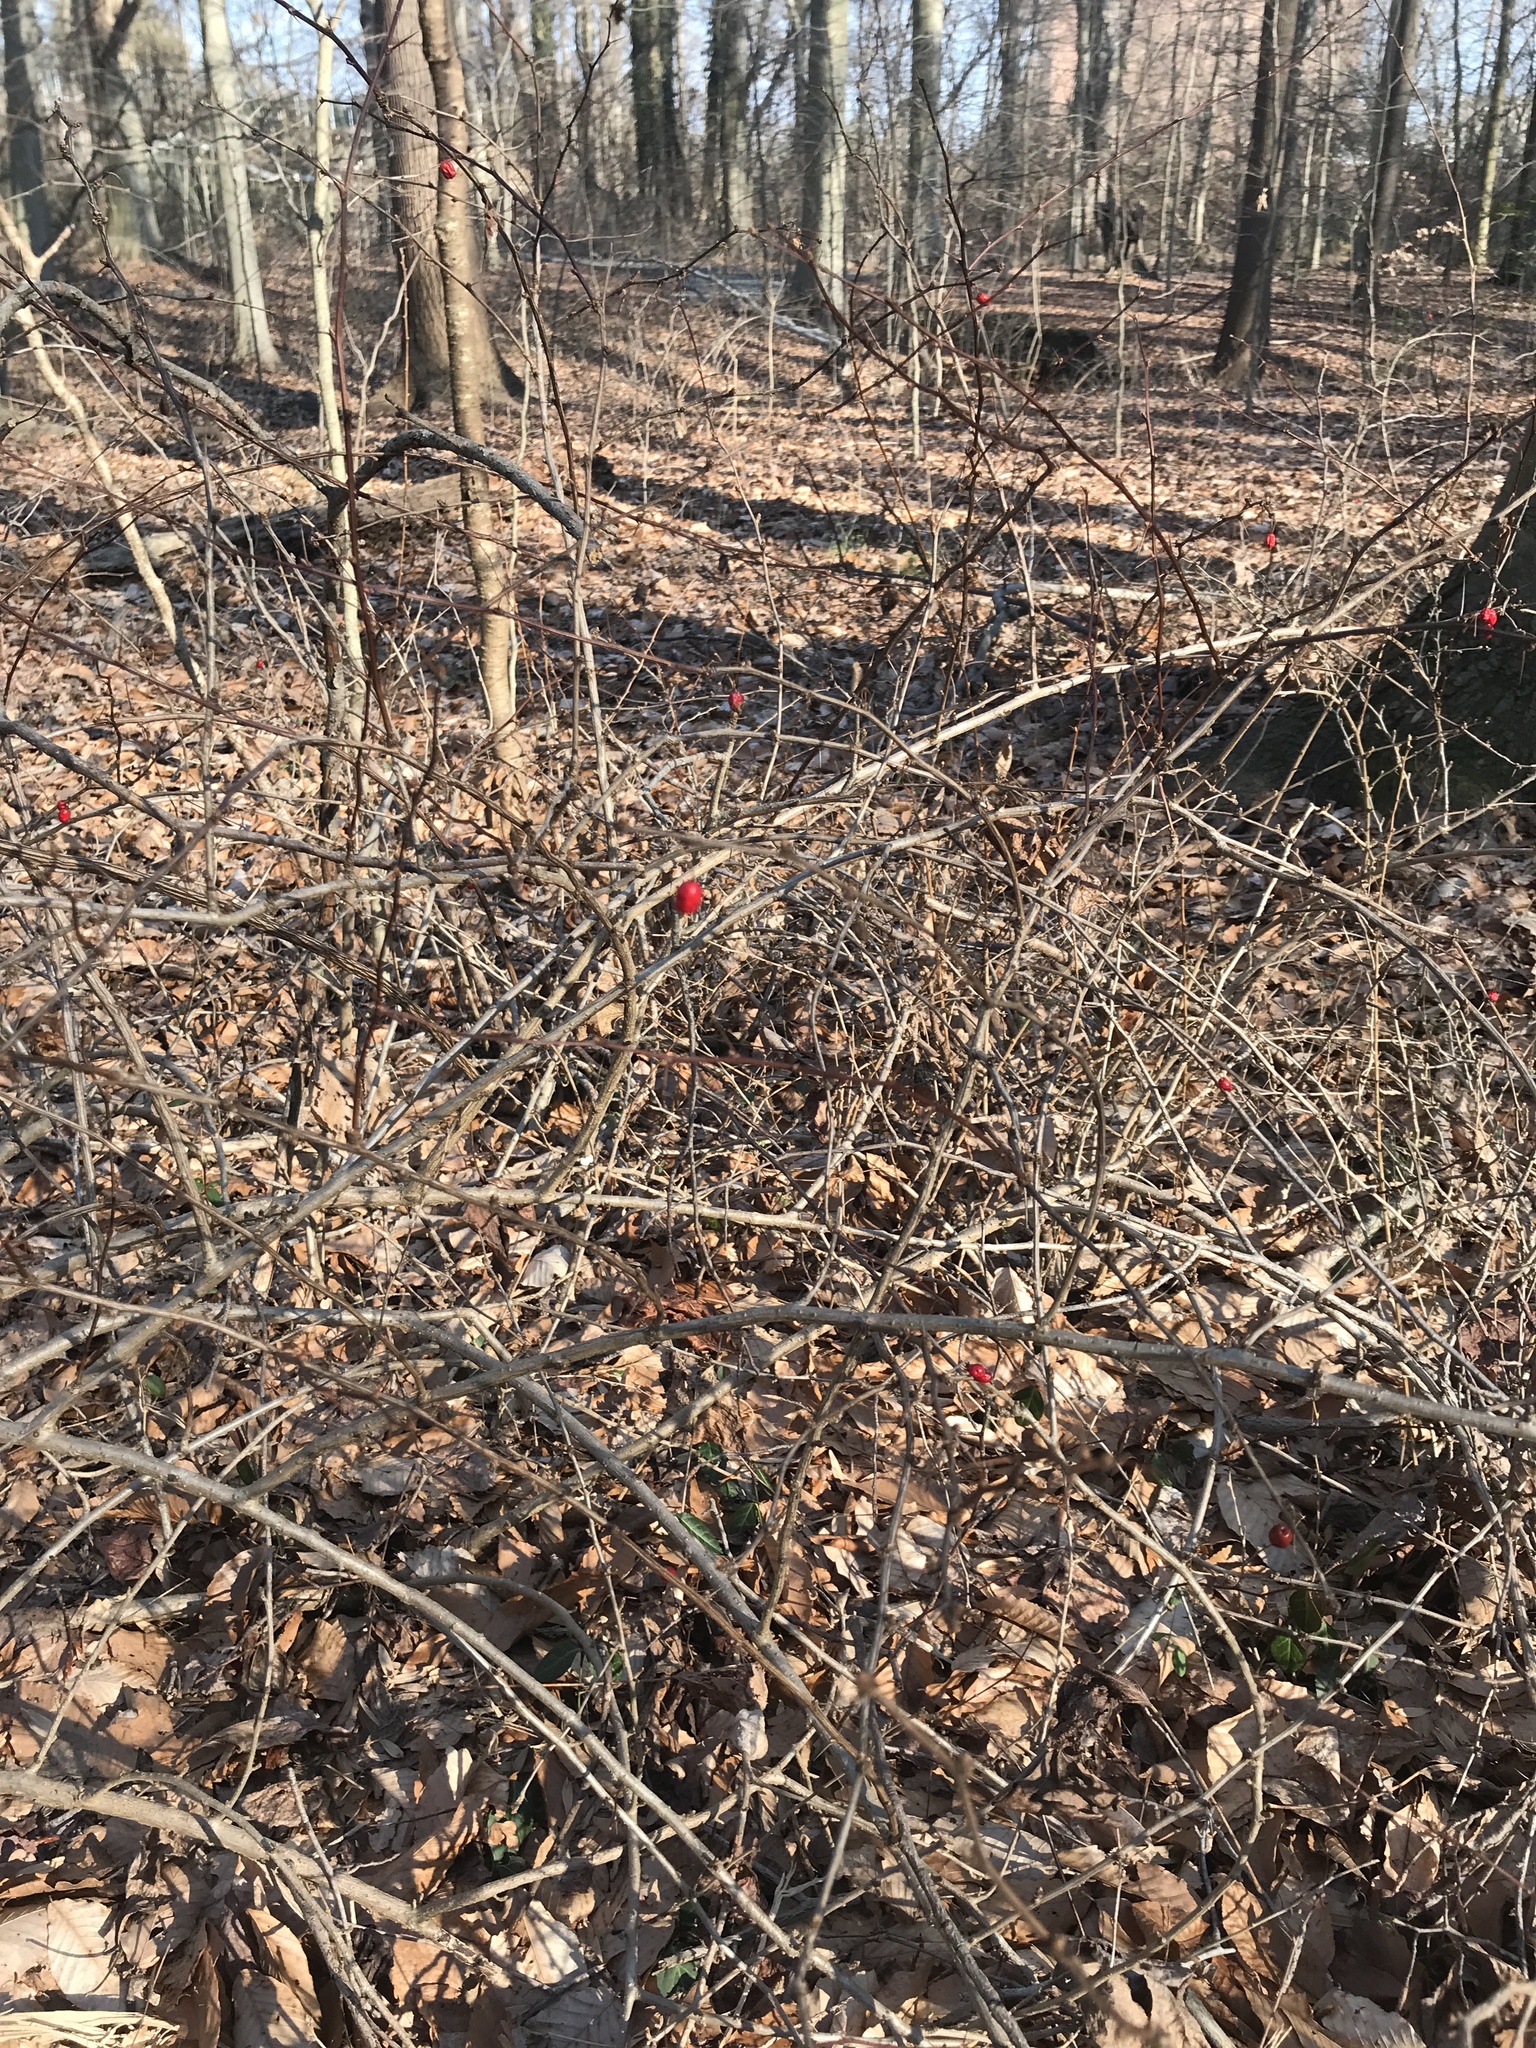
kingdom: Plantae
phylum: Tracheophyta
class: Magnoliopsida
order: Ranunculales
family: Berberidaceae
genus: Berberis
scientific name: Berberis thunbergii
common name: Japanese barberry
